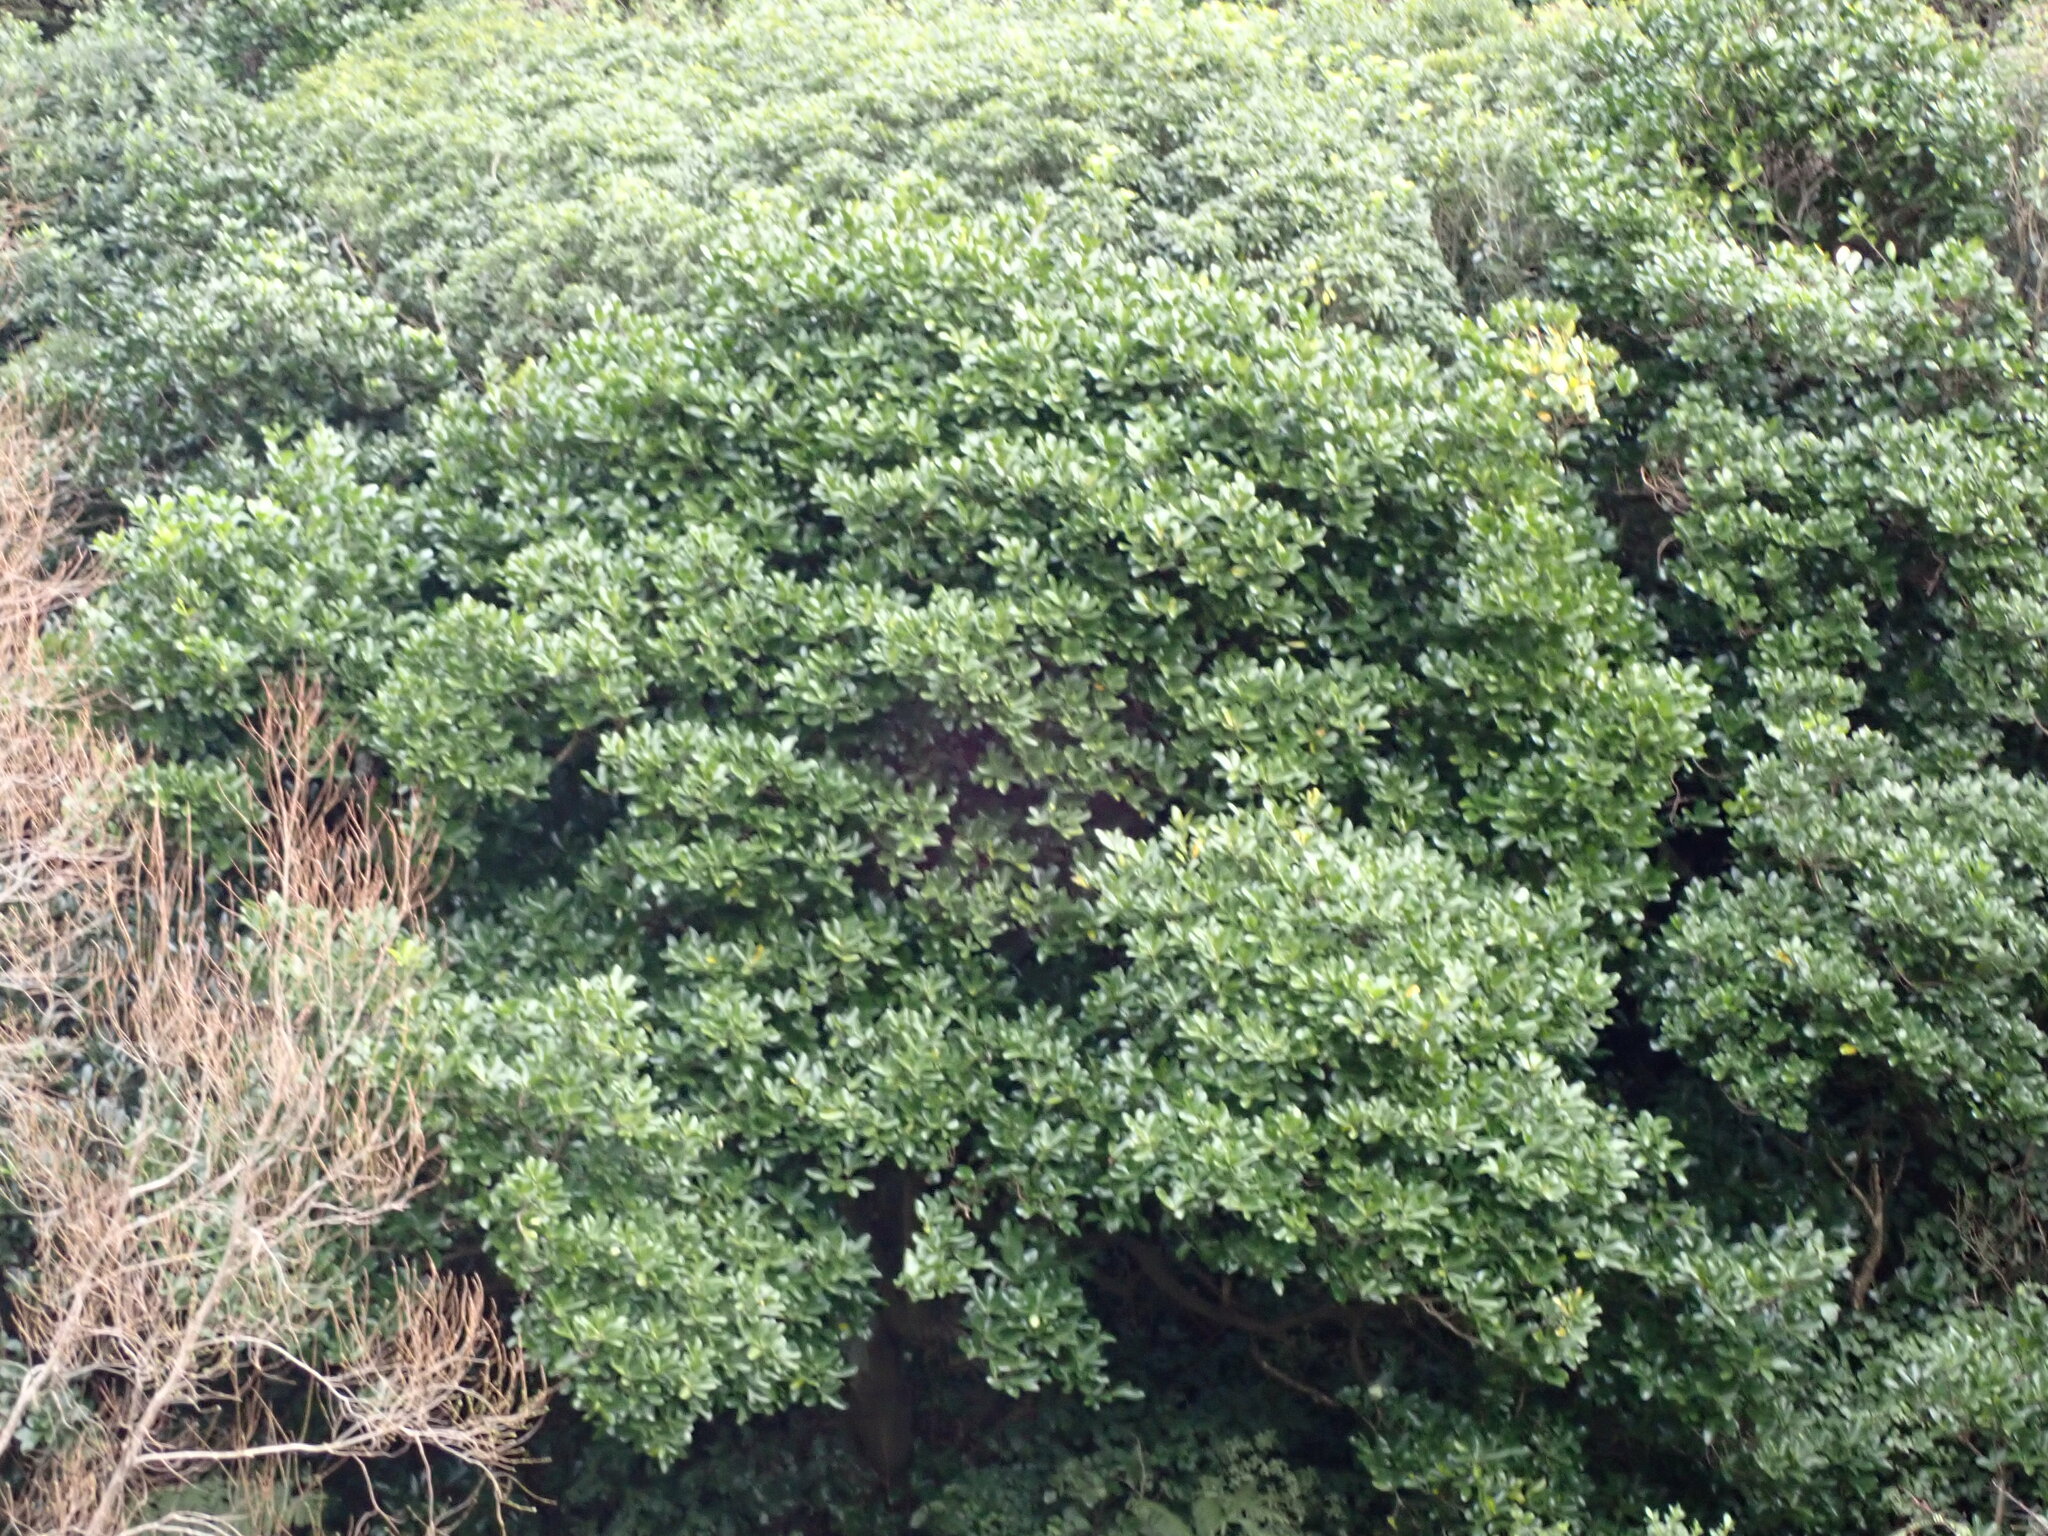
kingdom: Plantae
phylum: Tracheophyta
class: Magnoliopsida
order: Cucurbitales
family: Corynocarpaceae
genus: Corynocarpus
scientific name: Corynocarpus laevigatus
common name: New zealand laurel
